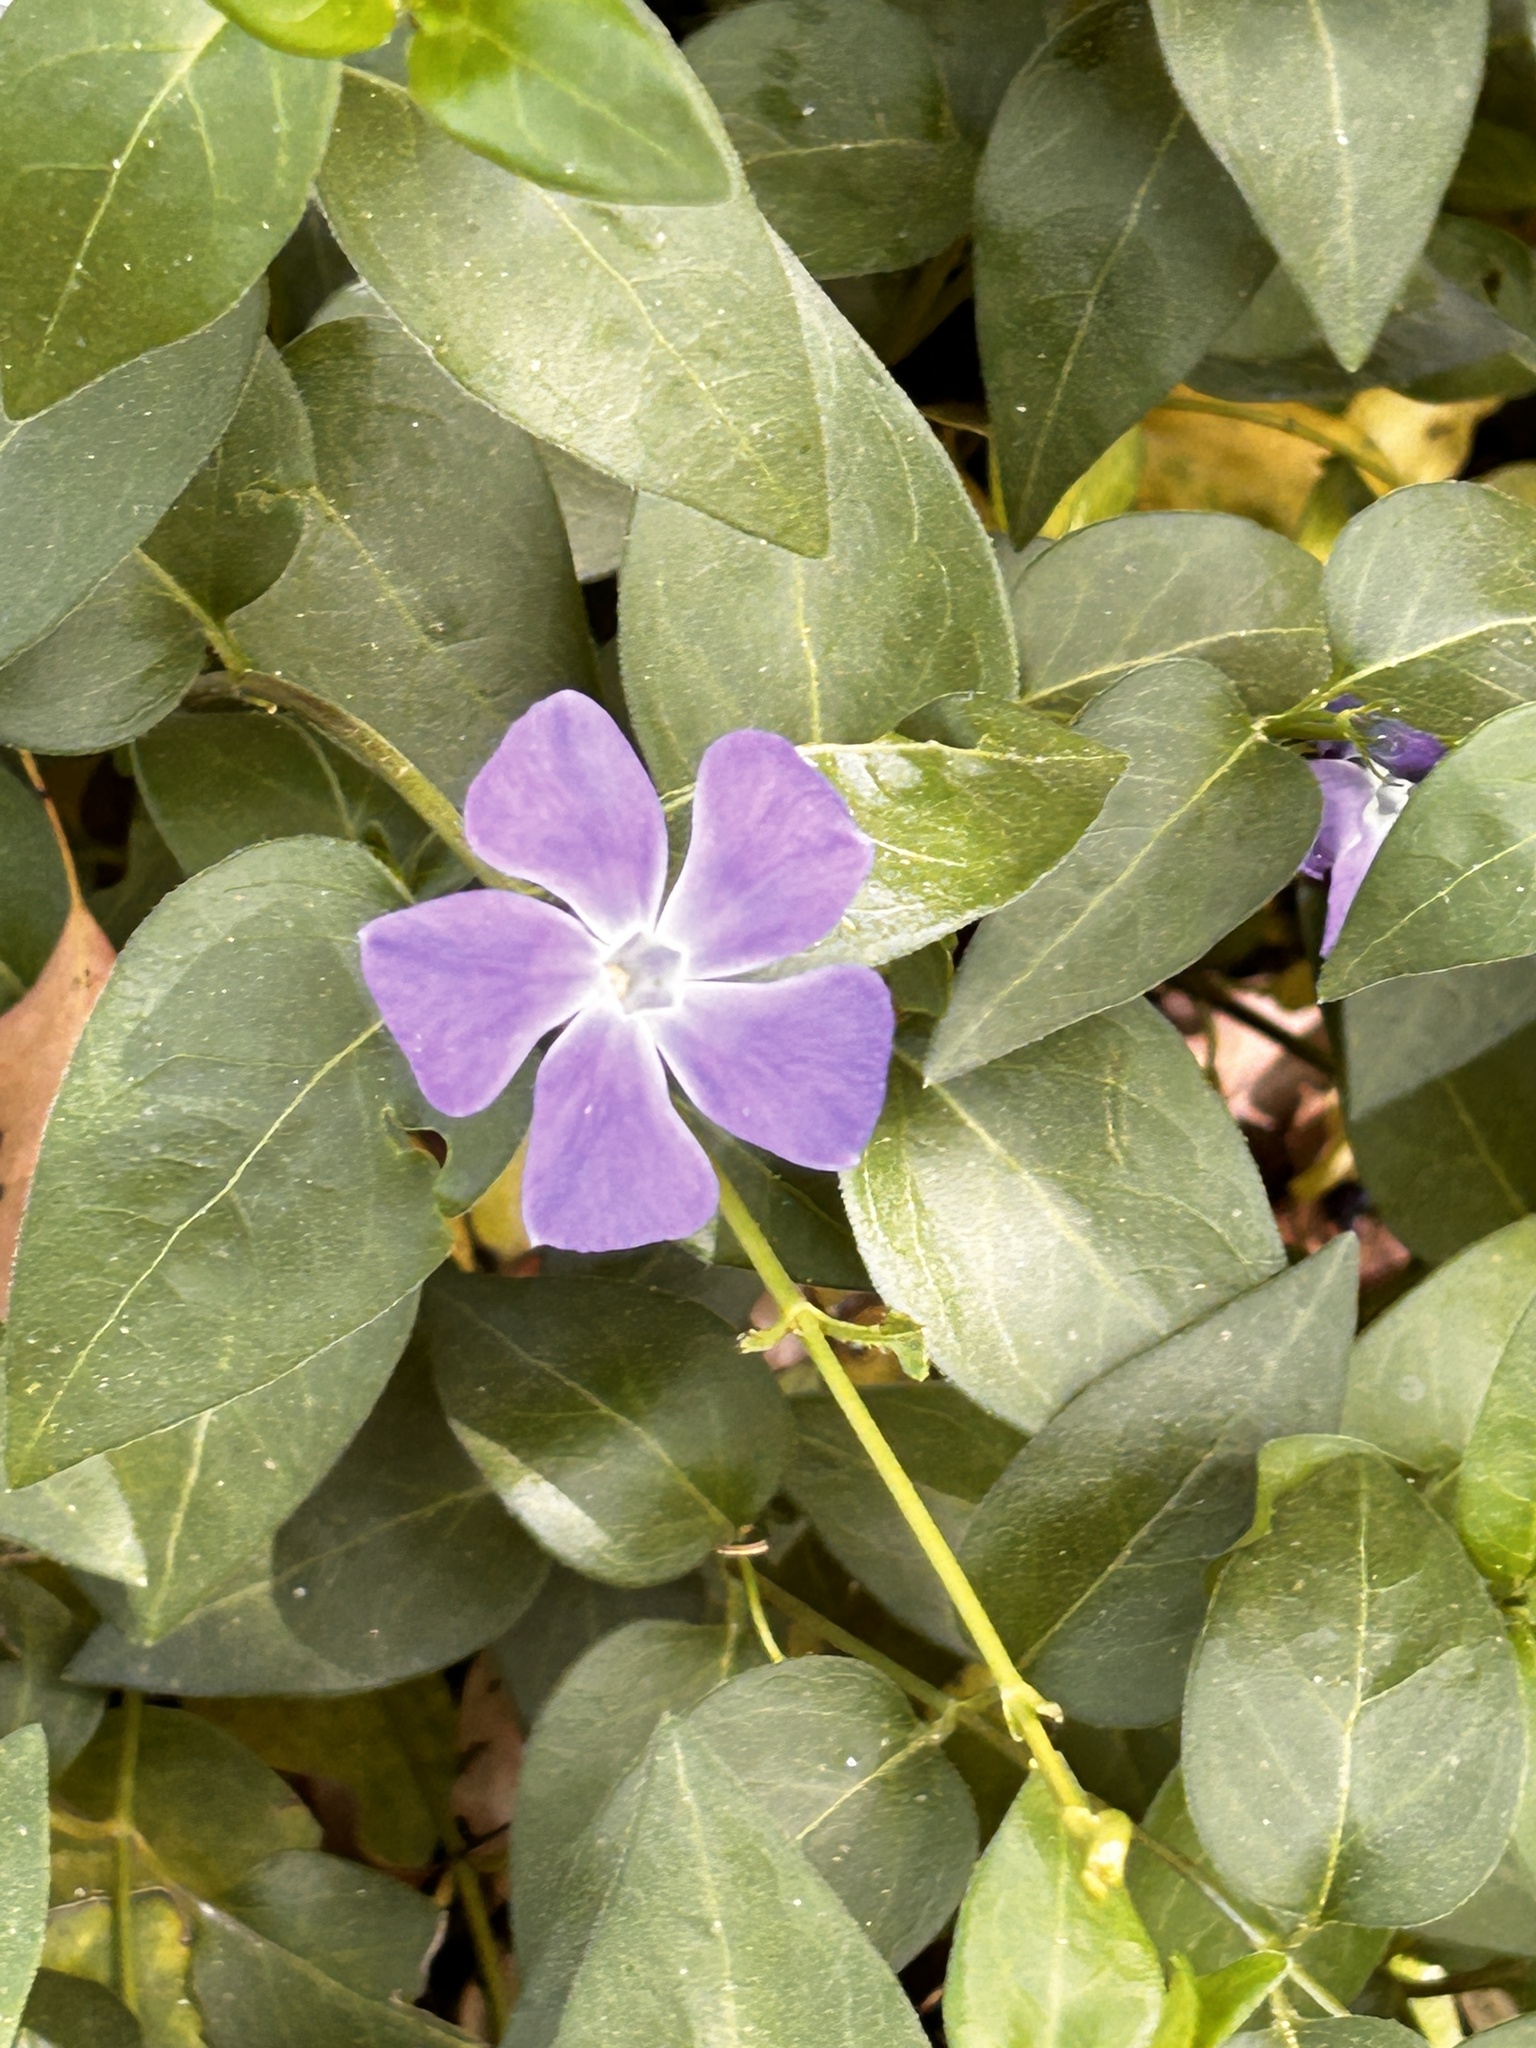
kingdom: Plantae
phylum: Tracheophyta
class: Magnoliopsida
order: Gentianales
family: Apocynaceae
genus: Vinca
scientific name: Vinca major
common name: Greater periwinkle
